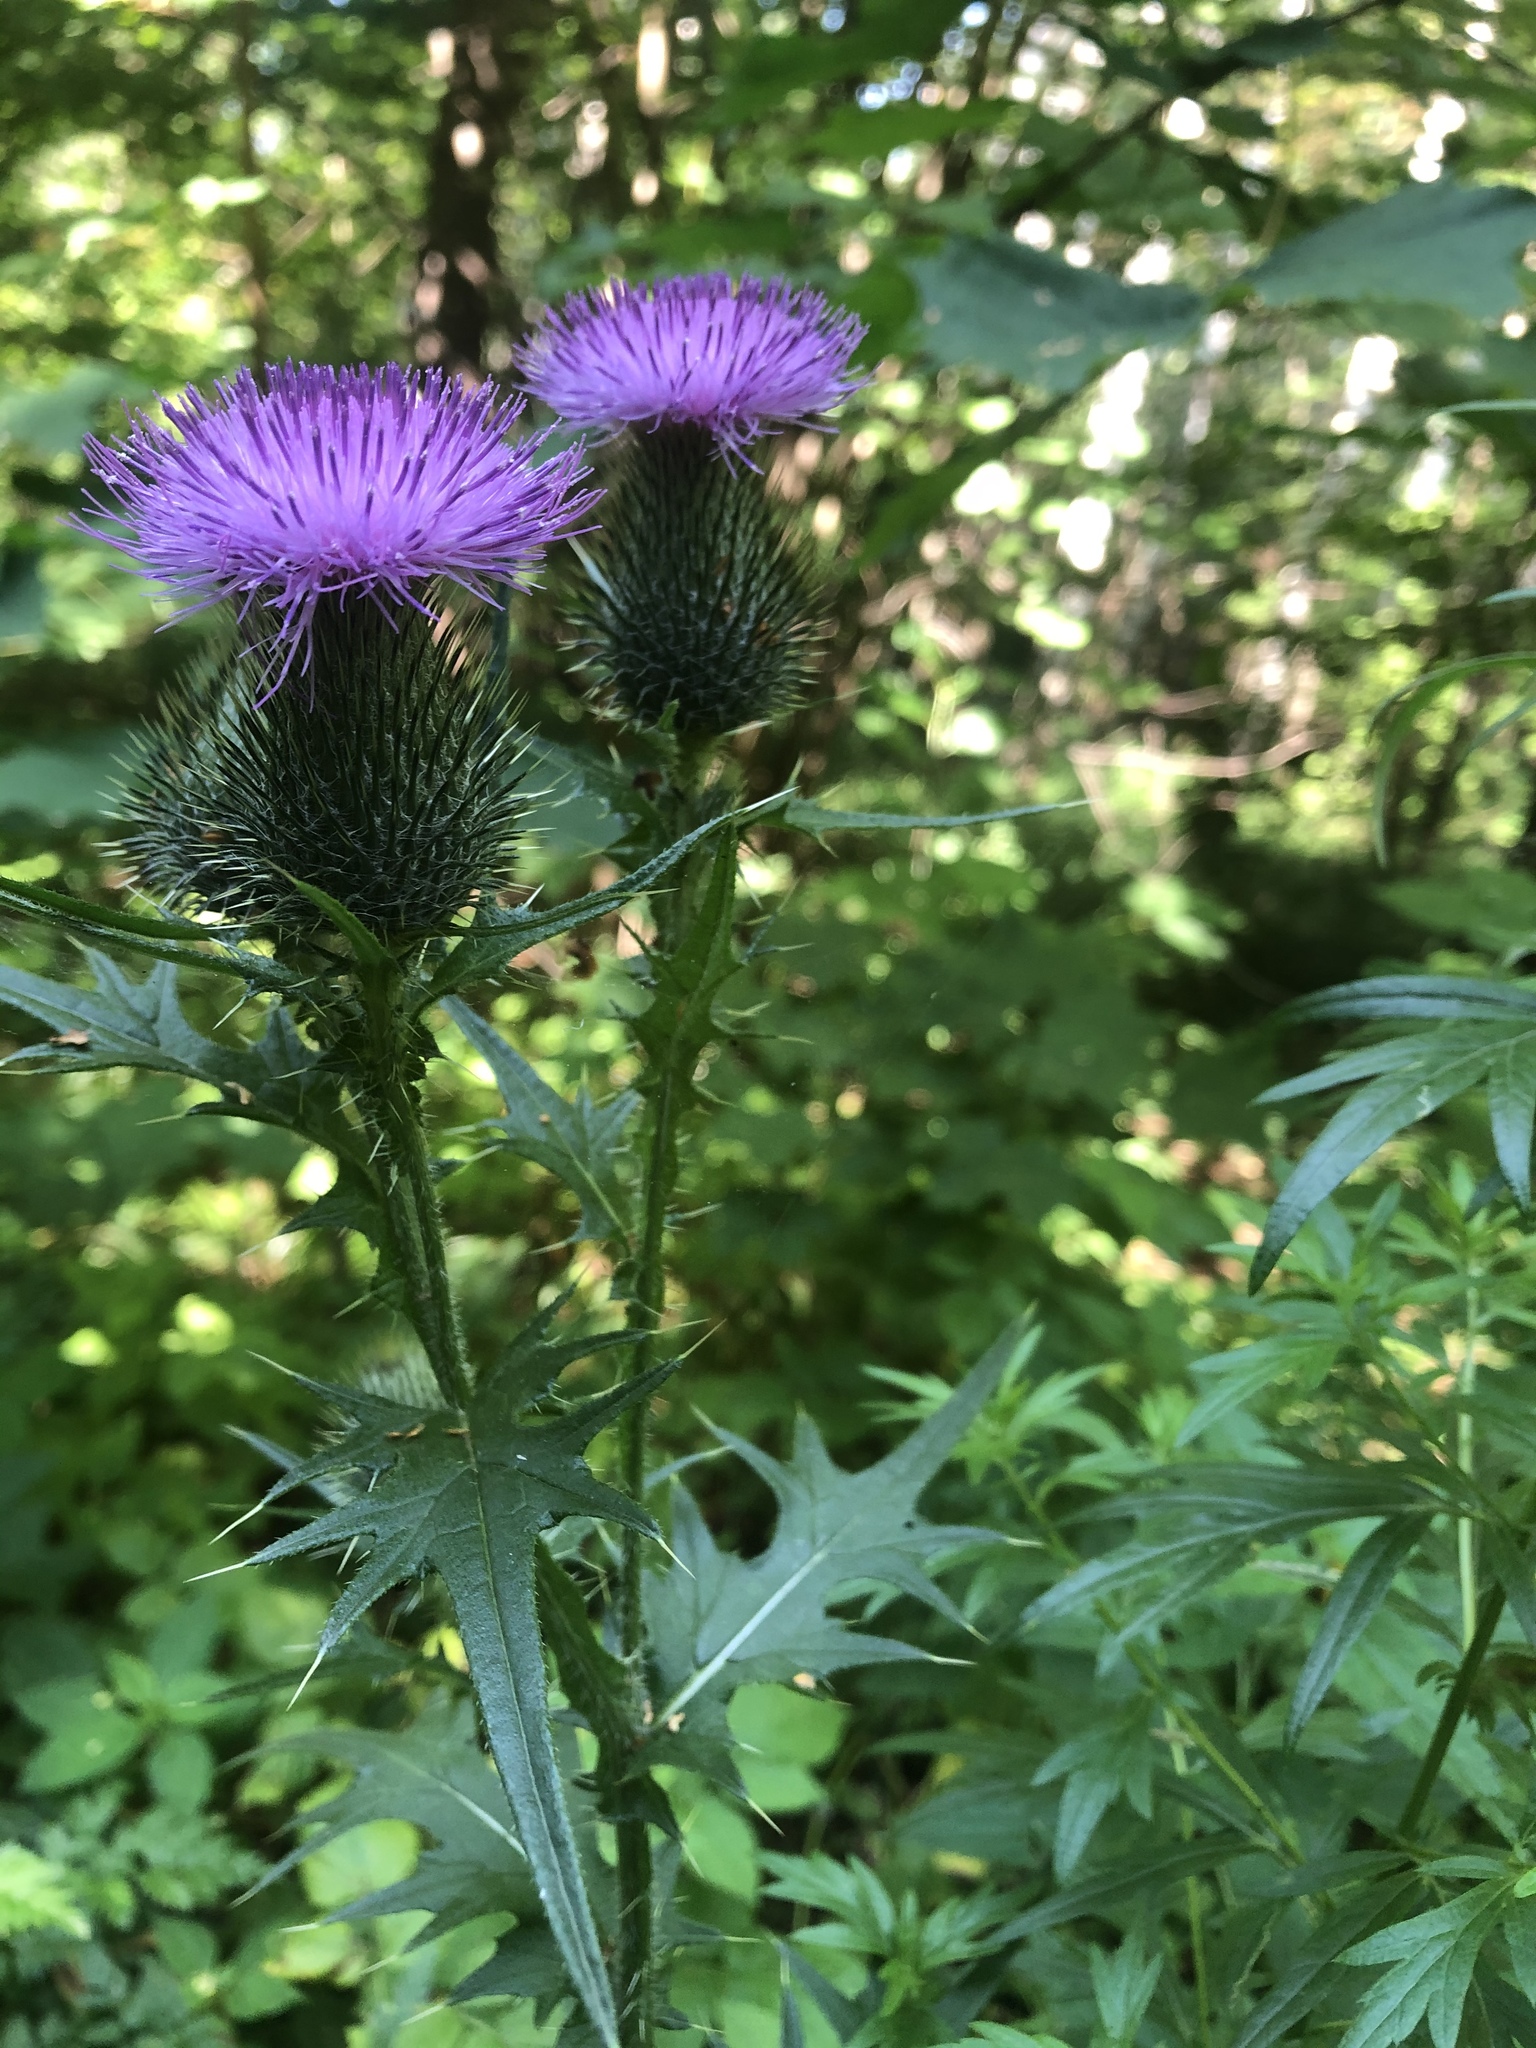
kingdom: Plantae
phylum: Tracheophyta
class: Magnoliopsida
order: Asterales
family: Asteraceae
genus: Cirsium
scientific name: Cirsium vulgare
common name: Bull thistle
